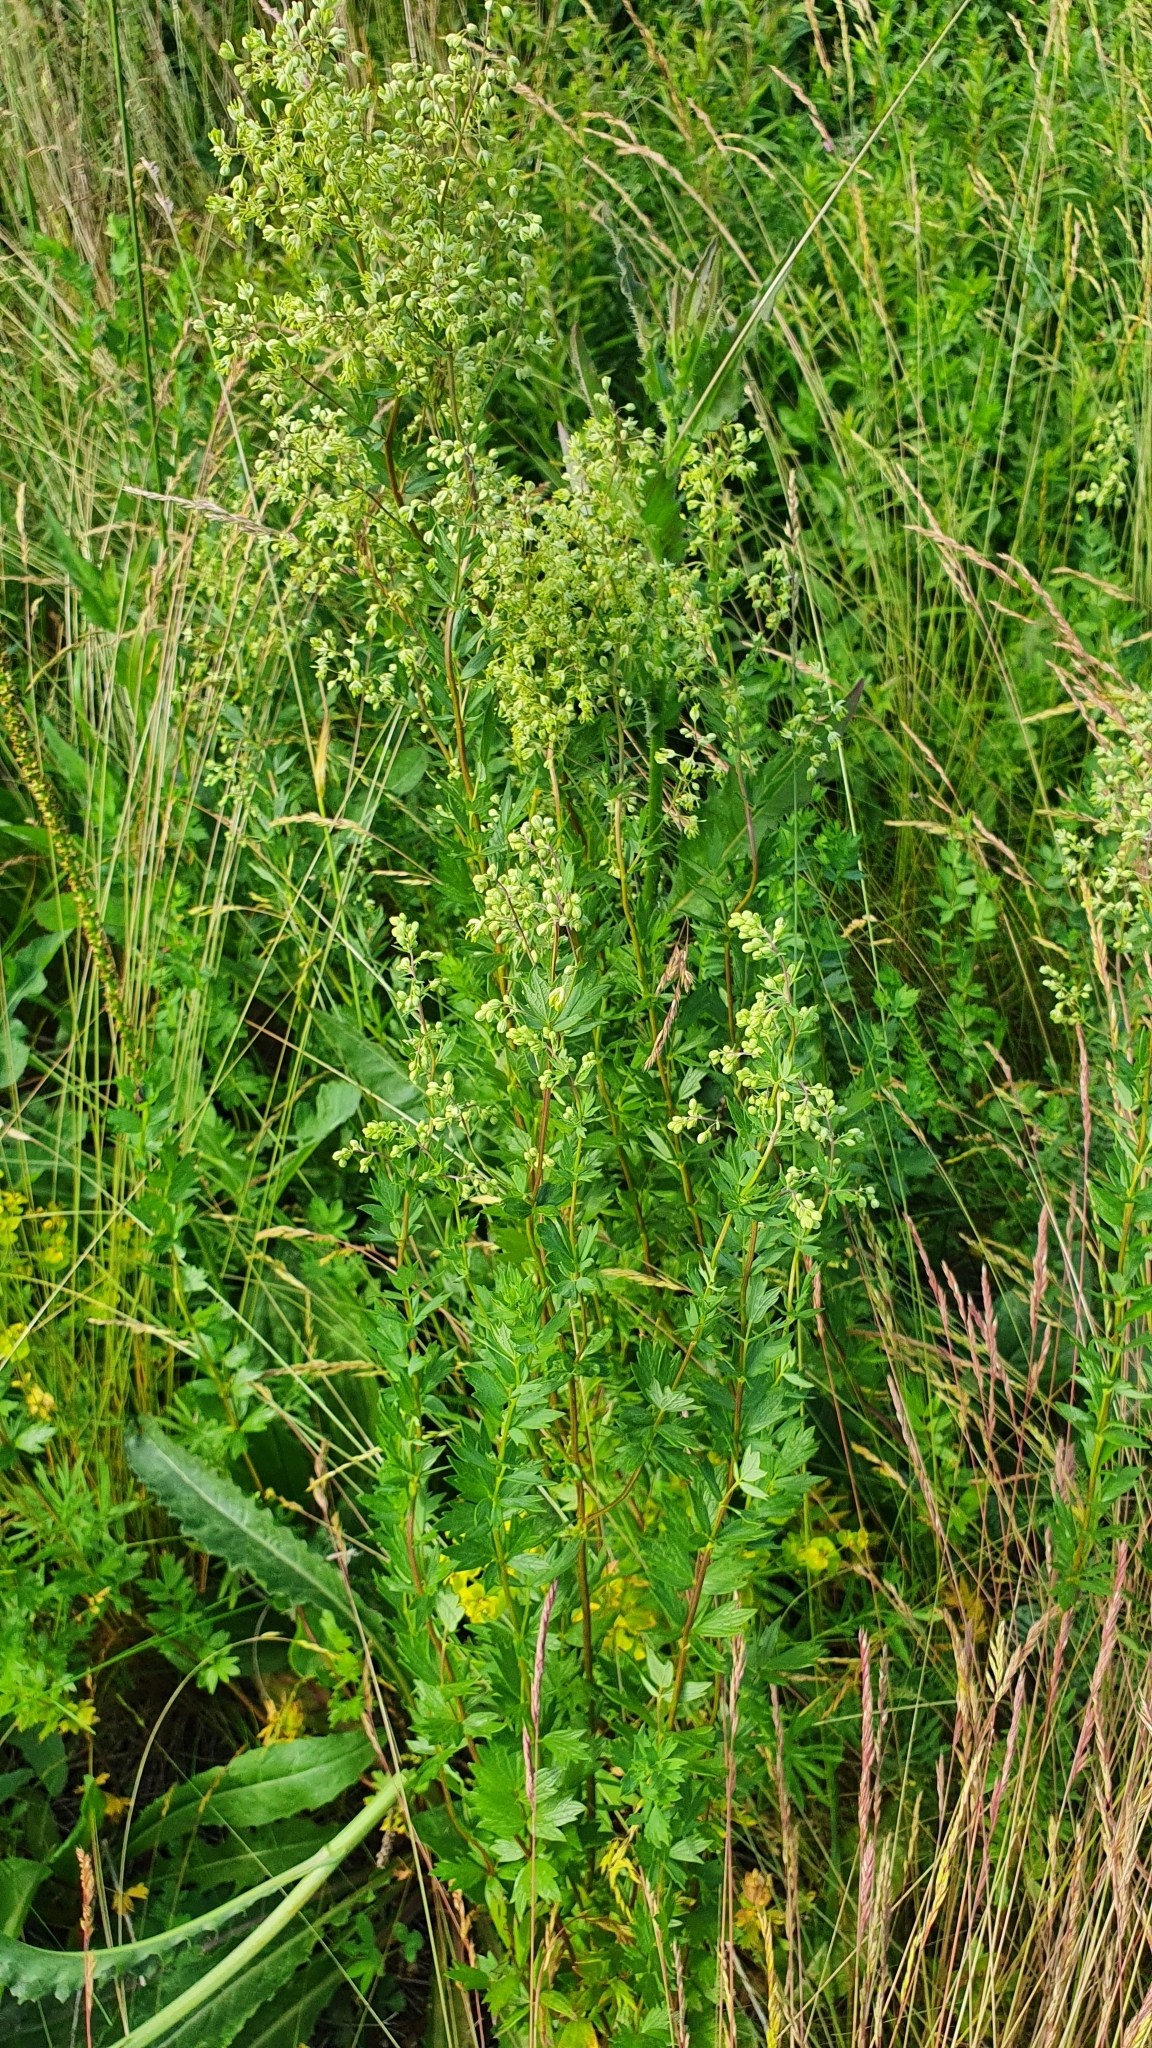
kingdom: Plantae
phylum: Tracheophyta
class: Magnoliopsida
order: Ranunculales
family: Ranunculaceae
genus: Thalictrum
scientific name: Thalictrum simplex
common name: Small meadow-rue
